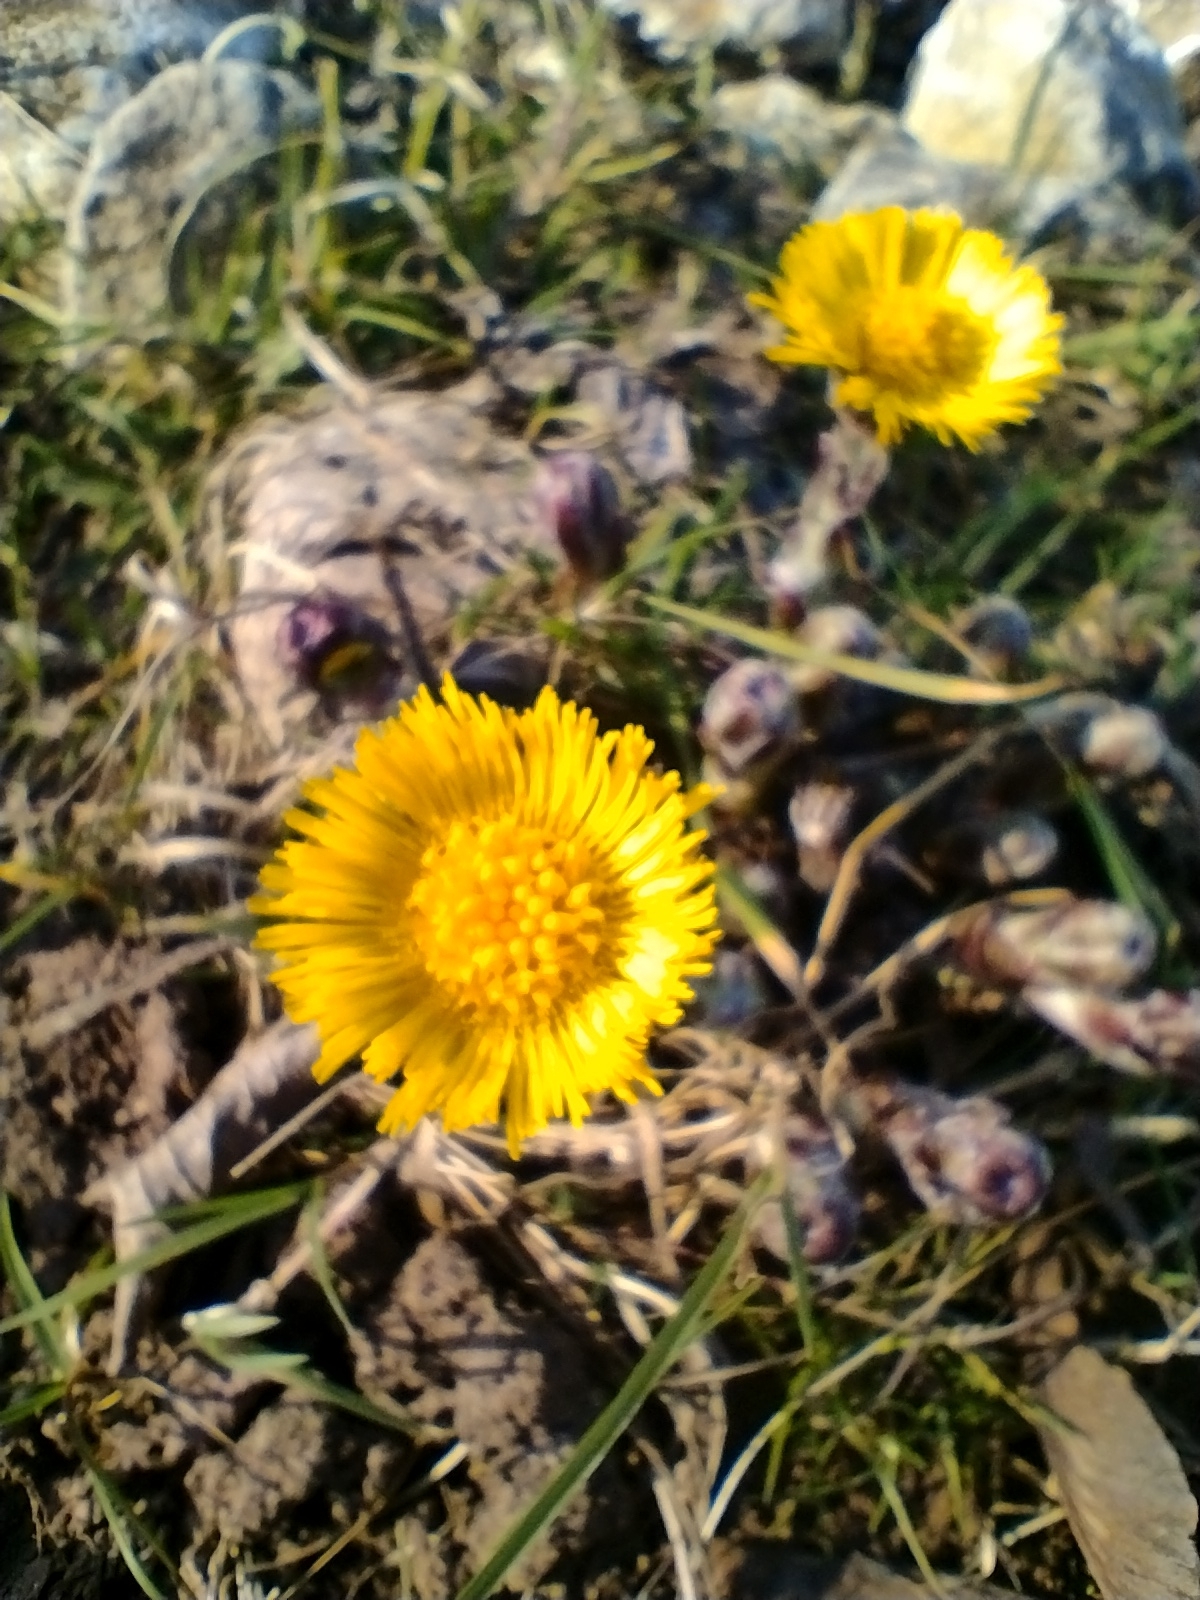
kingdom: Plantae
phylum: Tracheophyta
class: Magnoliopsida
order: Asterales
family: Asteraceae
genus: Tussilago
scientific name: Tussilago farfara
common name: Coltsfoot
